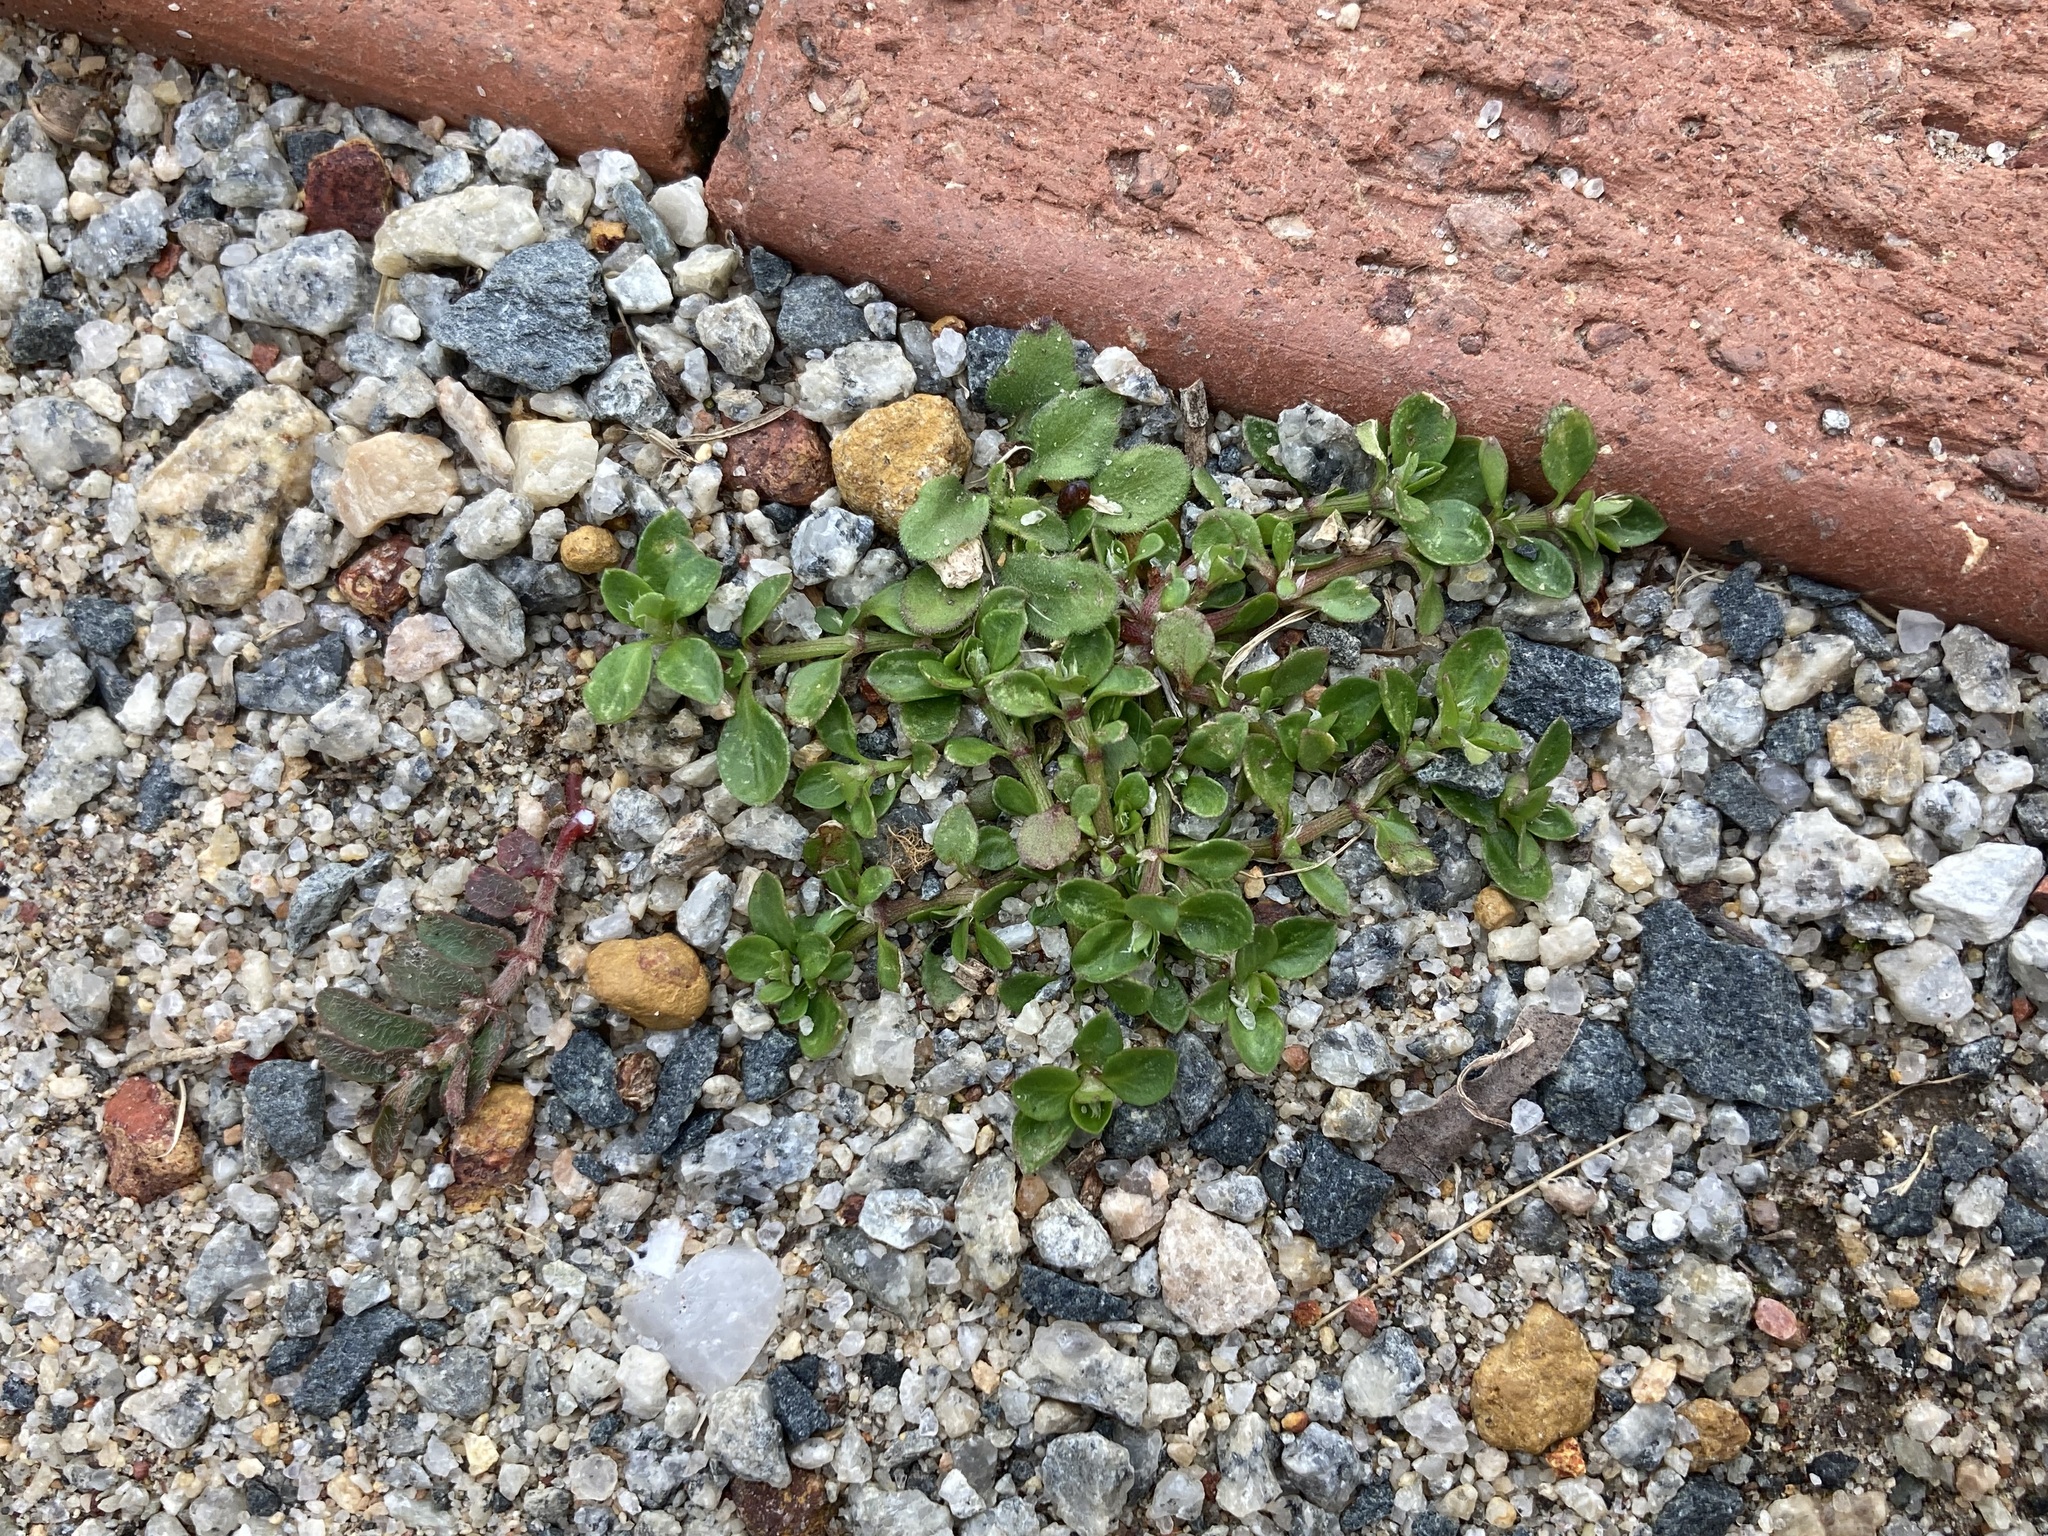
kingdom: Plantae
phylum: Tracheophyta
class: Magnoliopsida
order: Caryophyllales
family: Caryophyllaceae
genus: Polycarpon
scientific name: Polycarpon tetraphyllum
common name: Four-leaved all-seed
